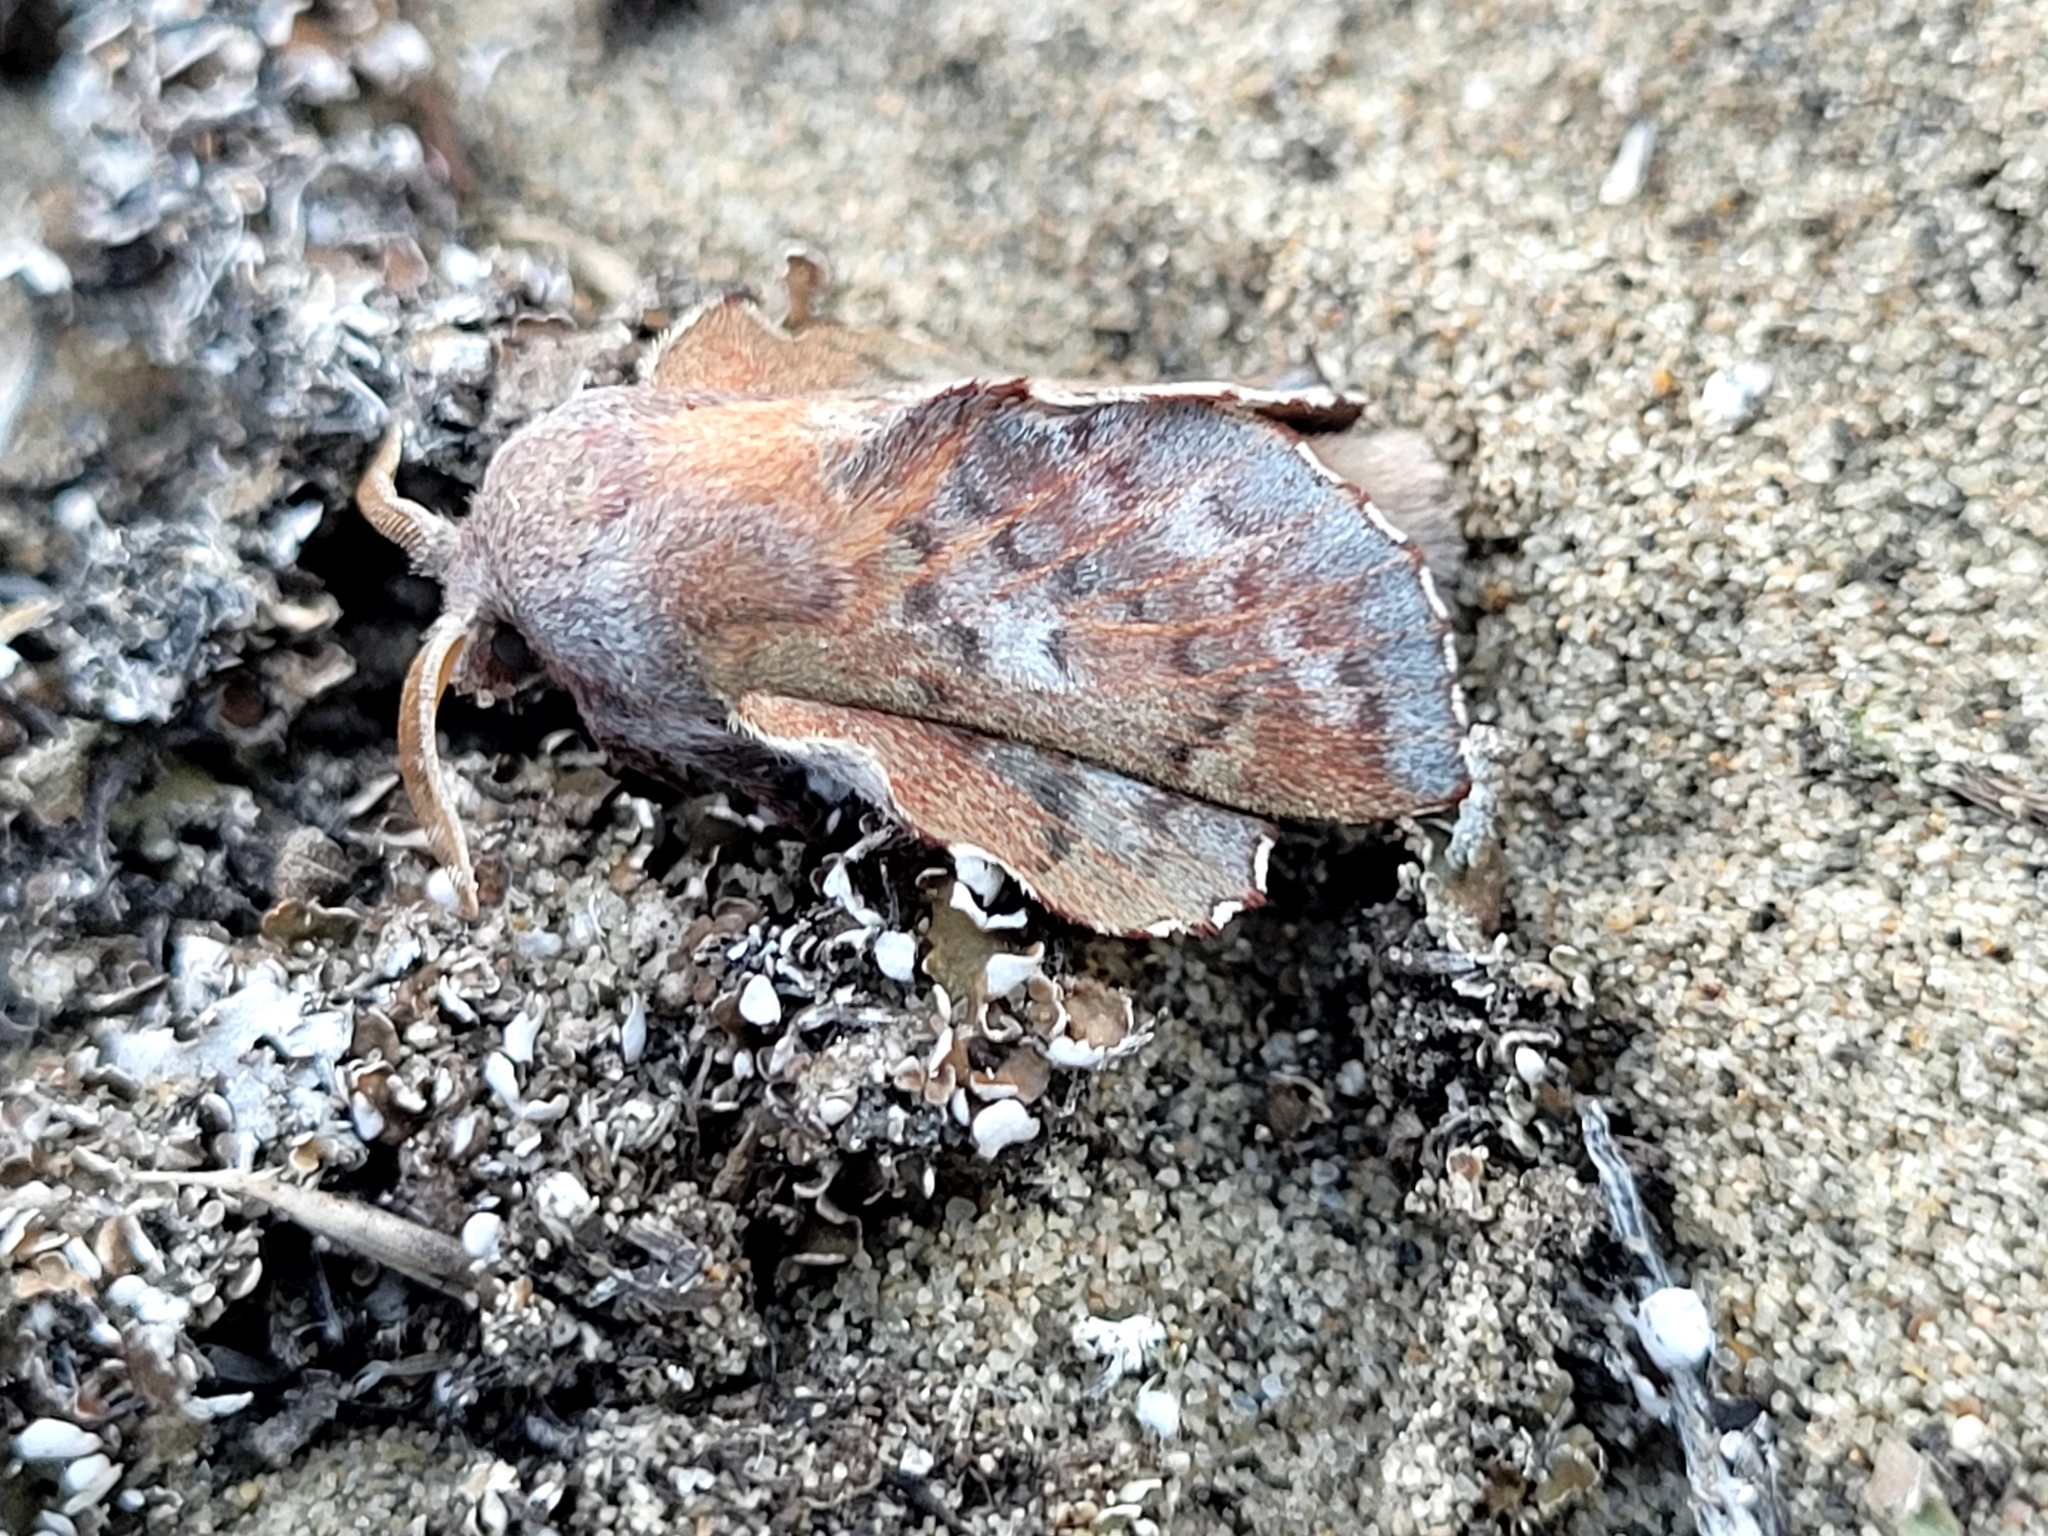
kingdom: Animalia
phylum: Arthropoda
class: Insecta
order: Lepidoptera
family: Lasiocampidae
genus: Phyllodesma
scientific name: Phyllodesma americana
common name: American lappet moth
